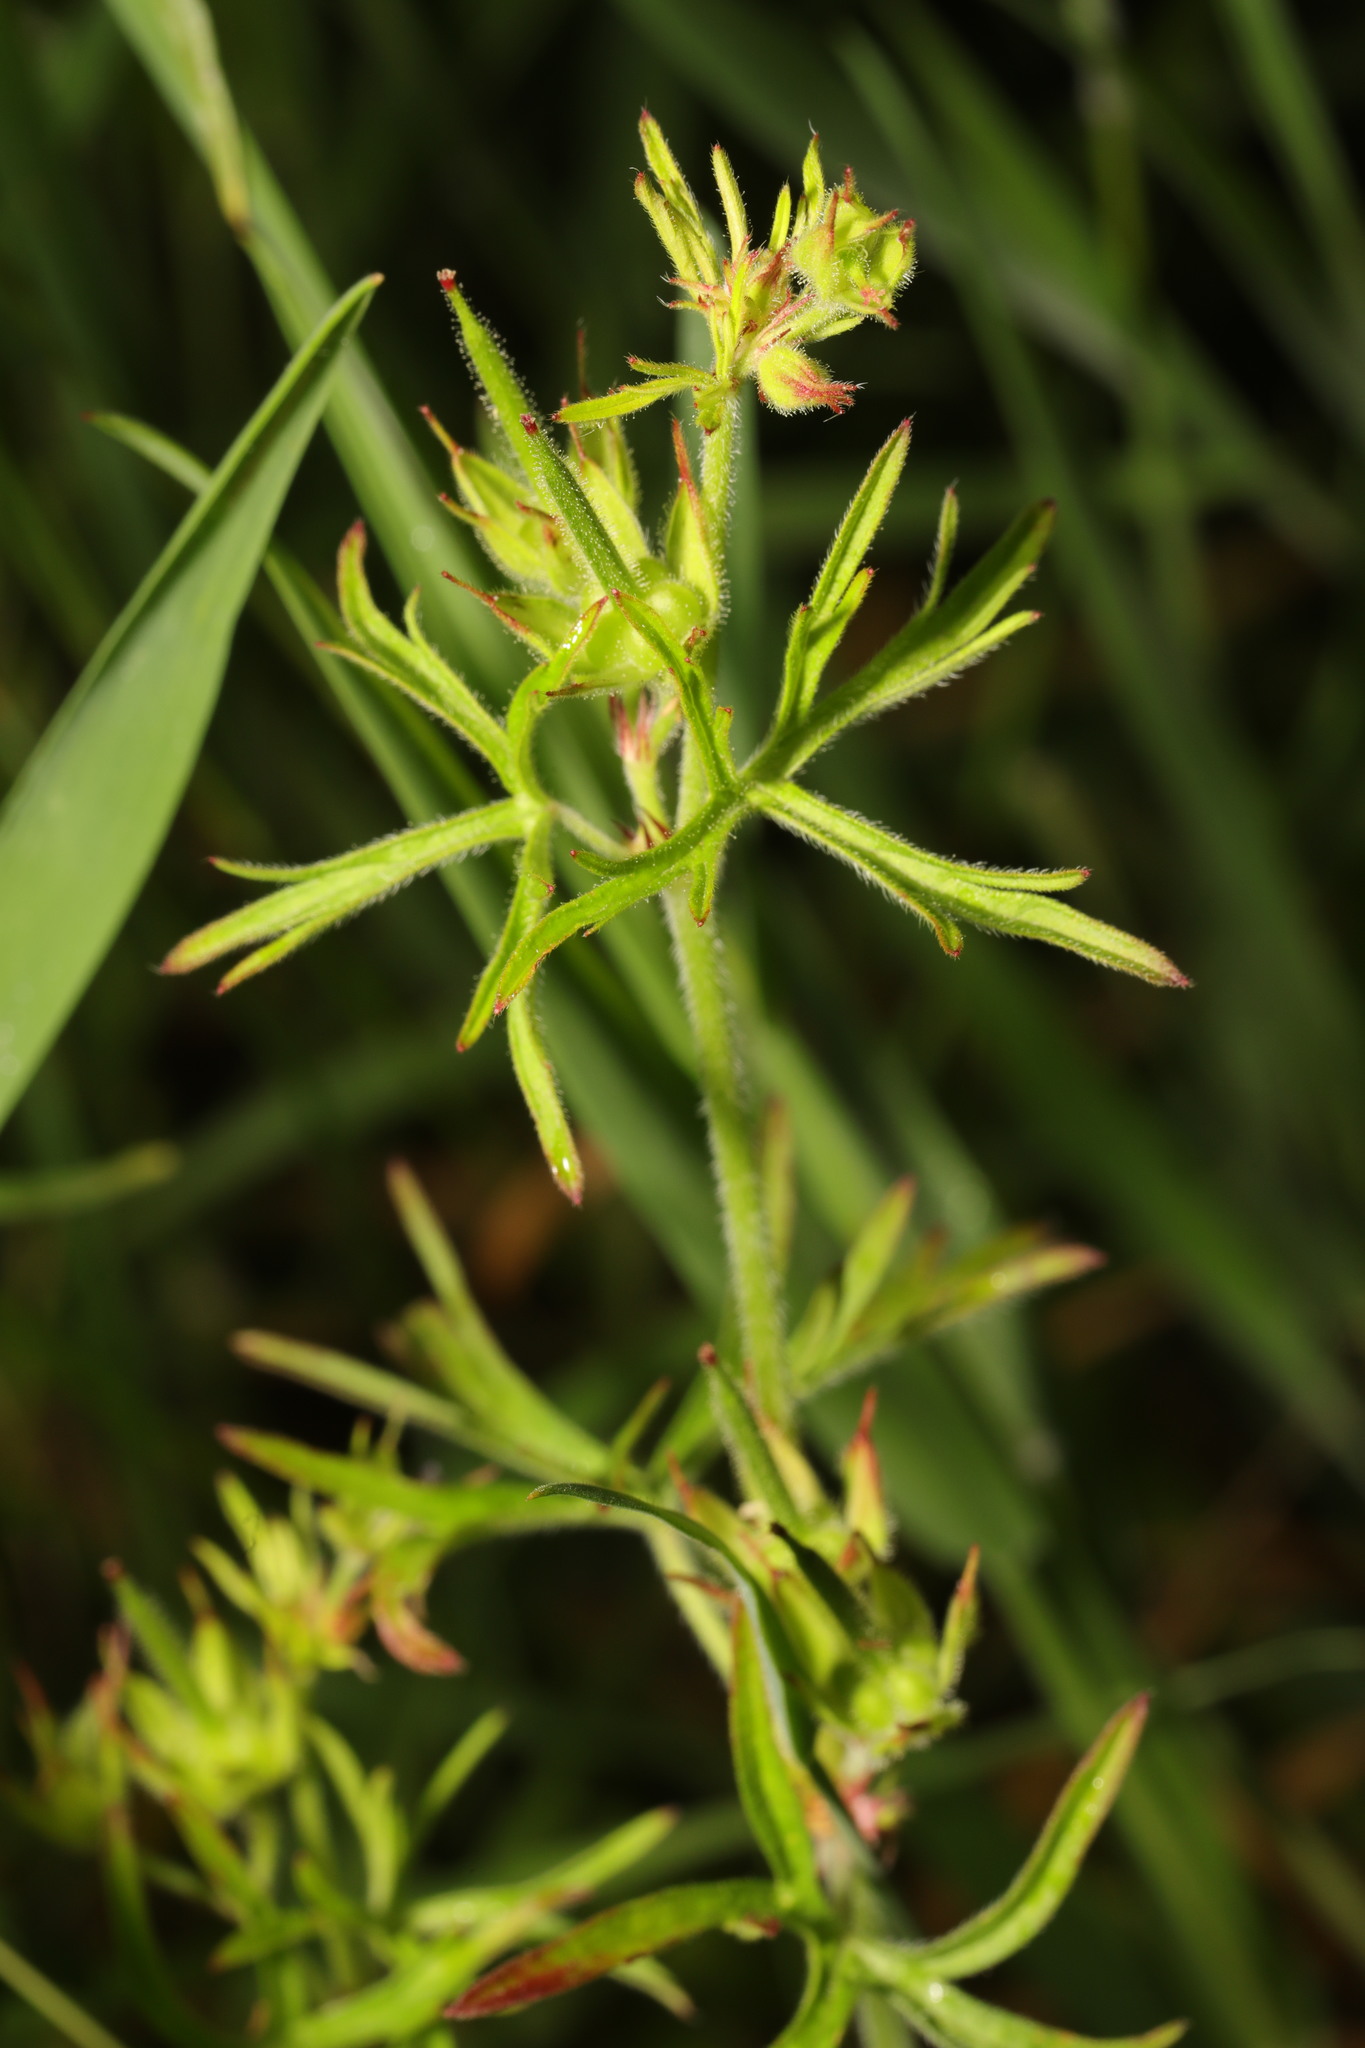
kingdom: Plantae
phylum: Tracheophyta
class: Magnoliopsida
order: Geraniales
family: Geraniaceae
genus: Geranium
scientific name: Geranium dissectum
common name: Cut-leaved crane's-bill
